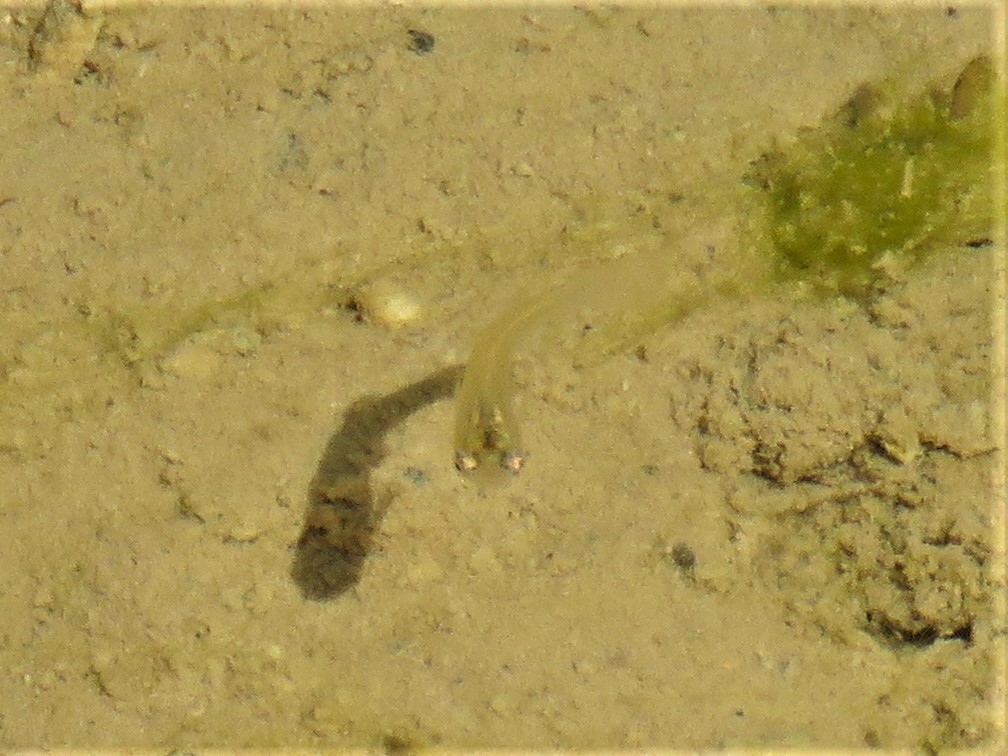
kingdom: Animalia
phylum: Chordata
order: Cyprinodontiformes
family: Poeciliidae
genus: Gambusia
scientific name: Gambusia affinis
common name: Mosquitofish
